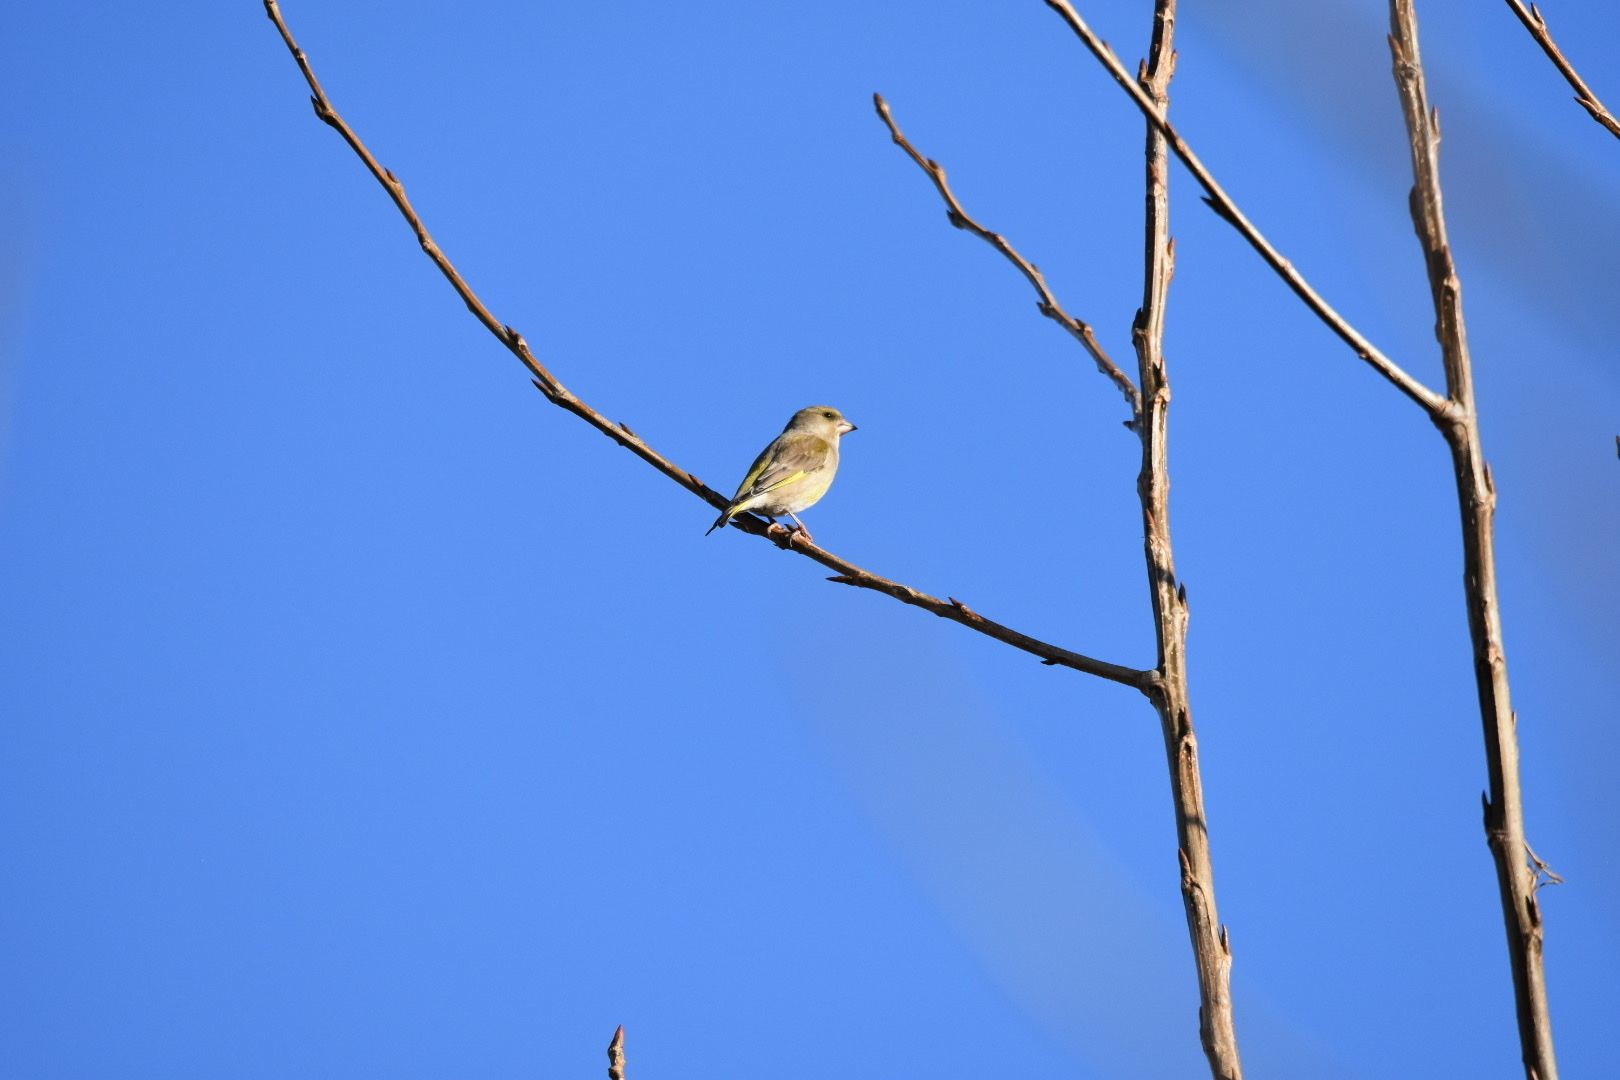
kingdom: Plantae
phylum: Tracheophyta
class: Liliopsida
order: Poales
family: Poaceae
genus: Chloris
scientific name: Chloris chloris
